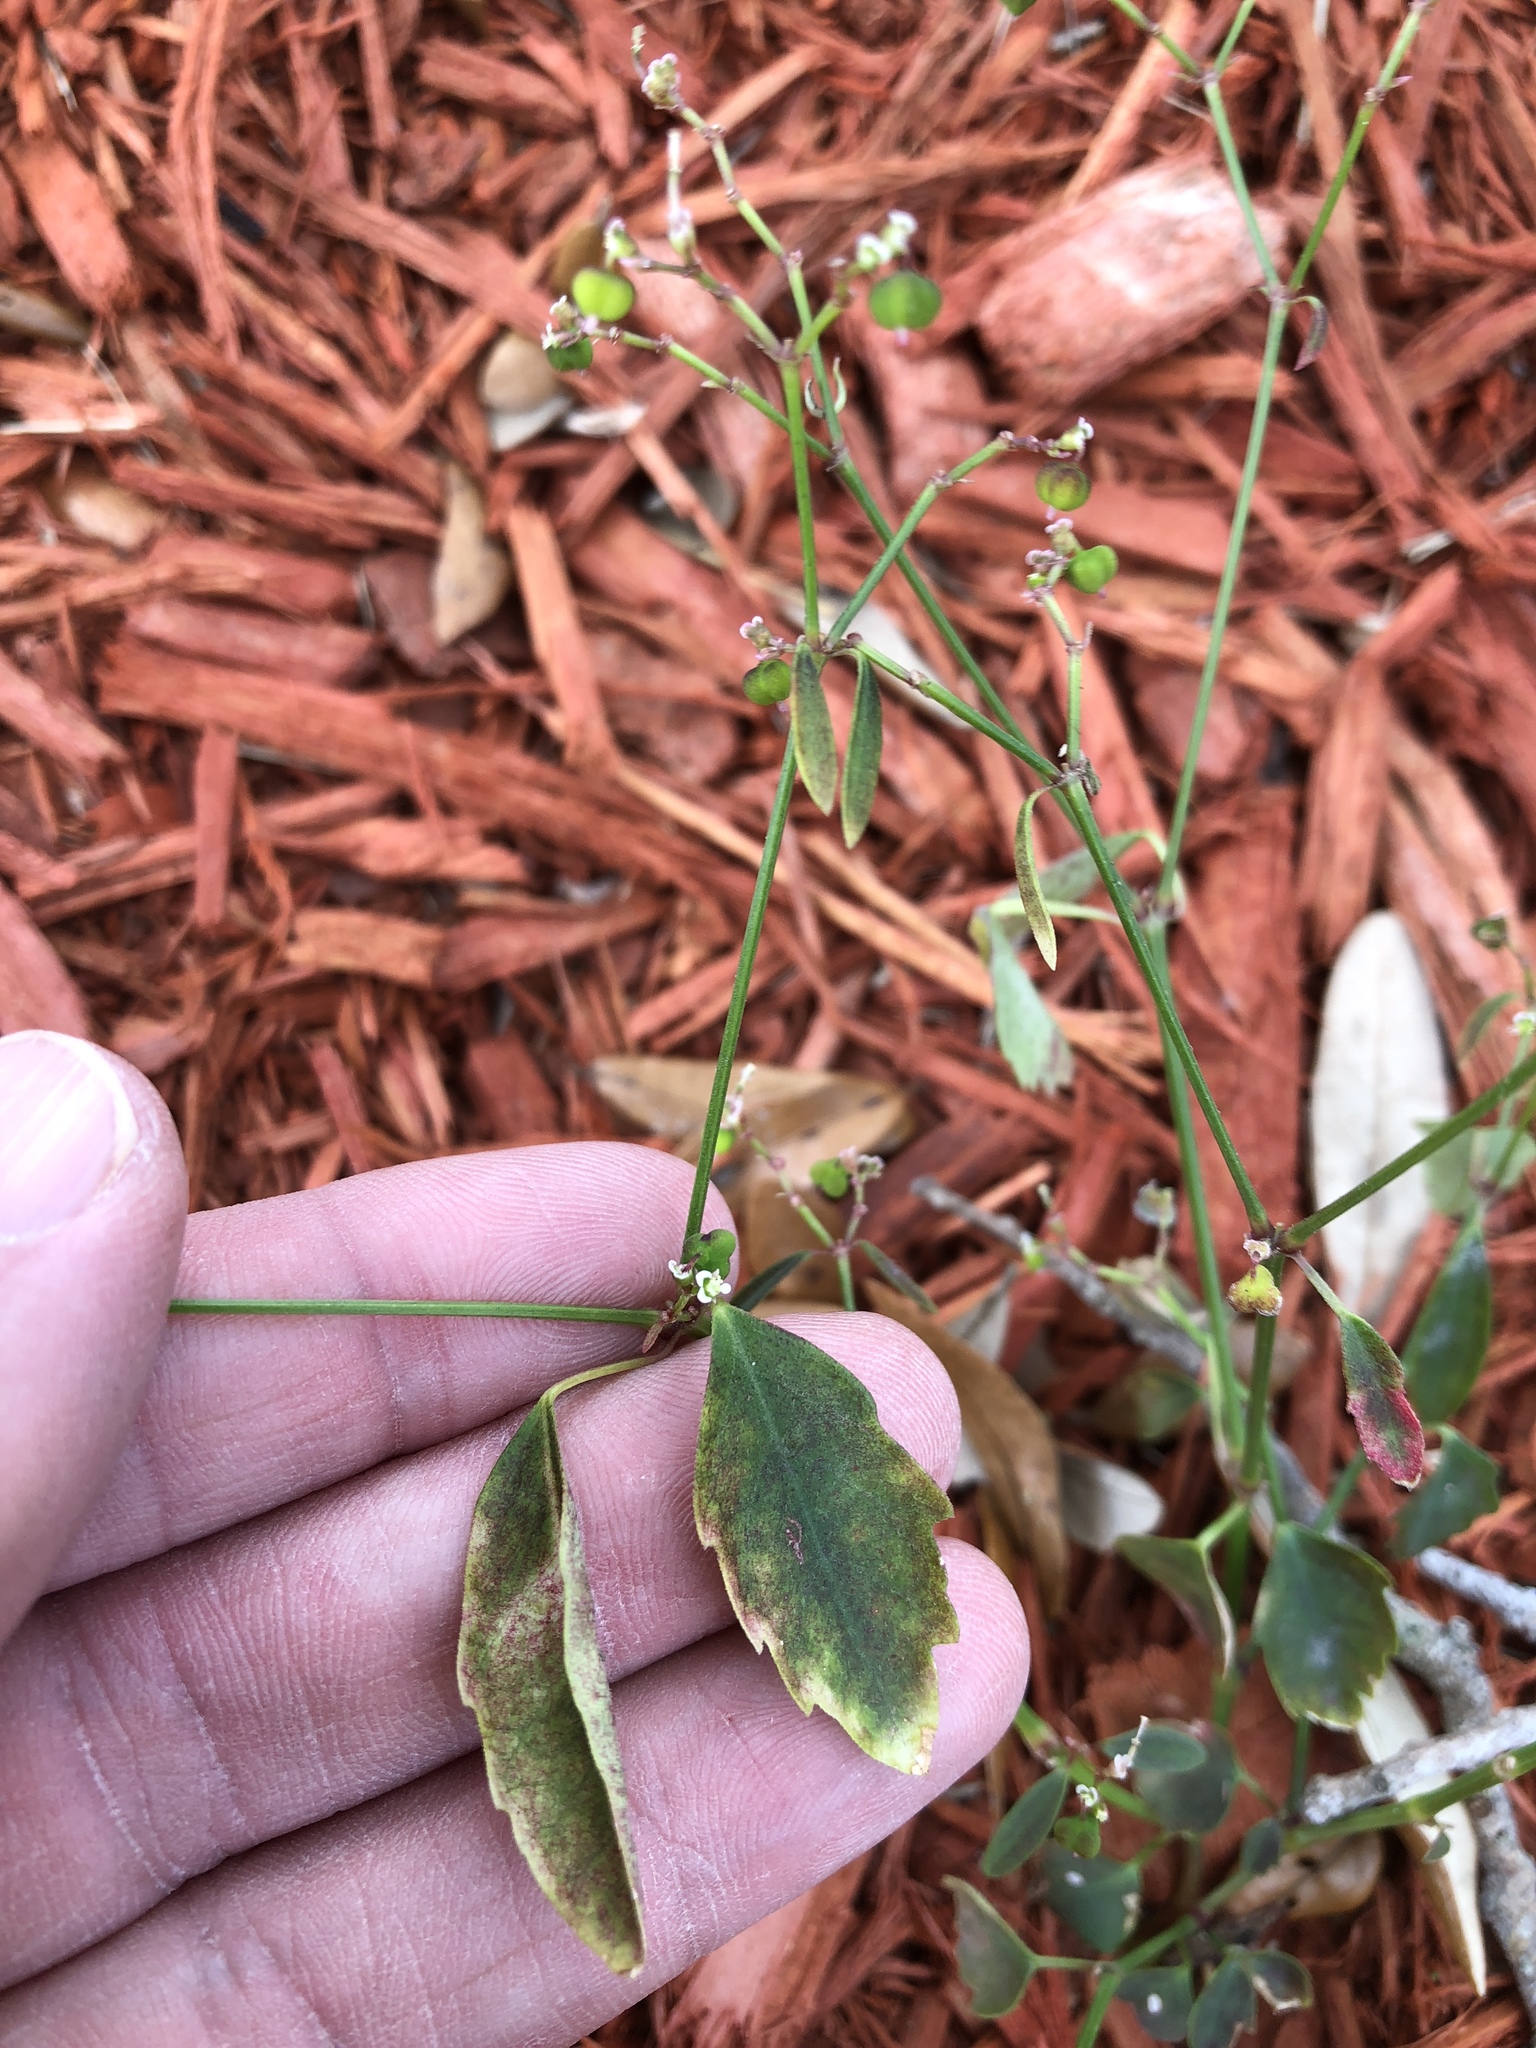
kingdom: Plantae
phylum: Tracheophyta
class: Magnoliopsida
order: Malpighiales
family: Euphorbiaceae
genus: Euphorbia
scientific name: Euphorbia graminea
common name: Grassleaf spurge
